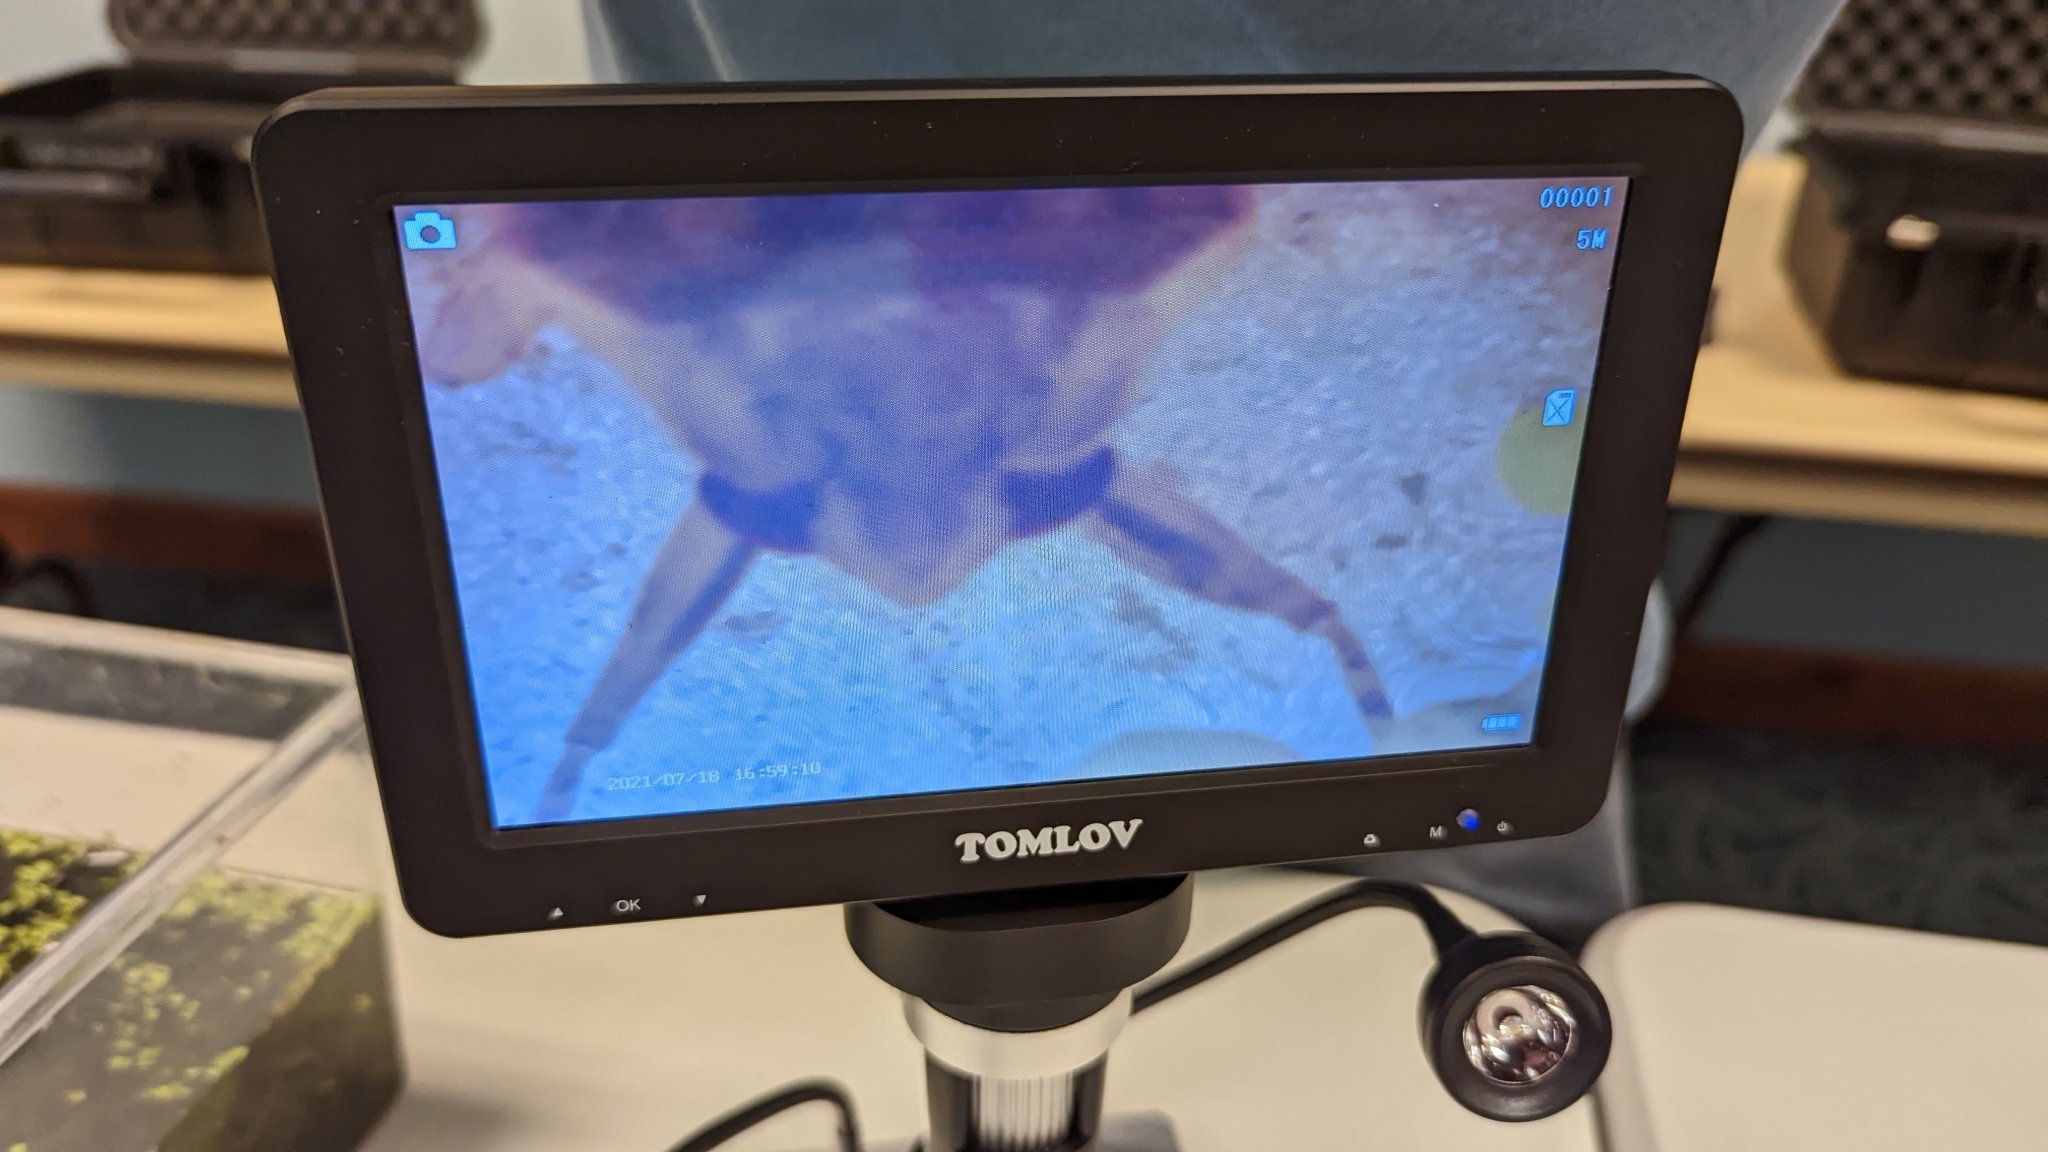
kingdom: Animalia
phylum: Arthropoda
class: Insecta
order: Hemiptera
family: Belostomatidae
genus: Belostoma
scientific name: Belostoma
